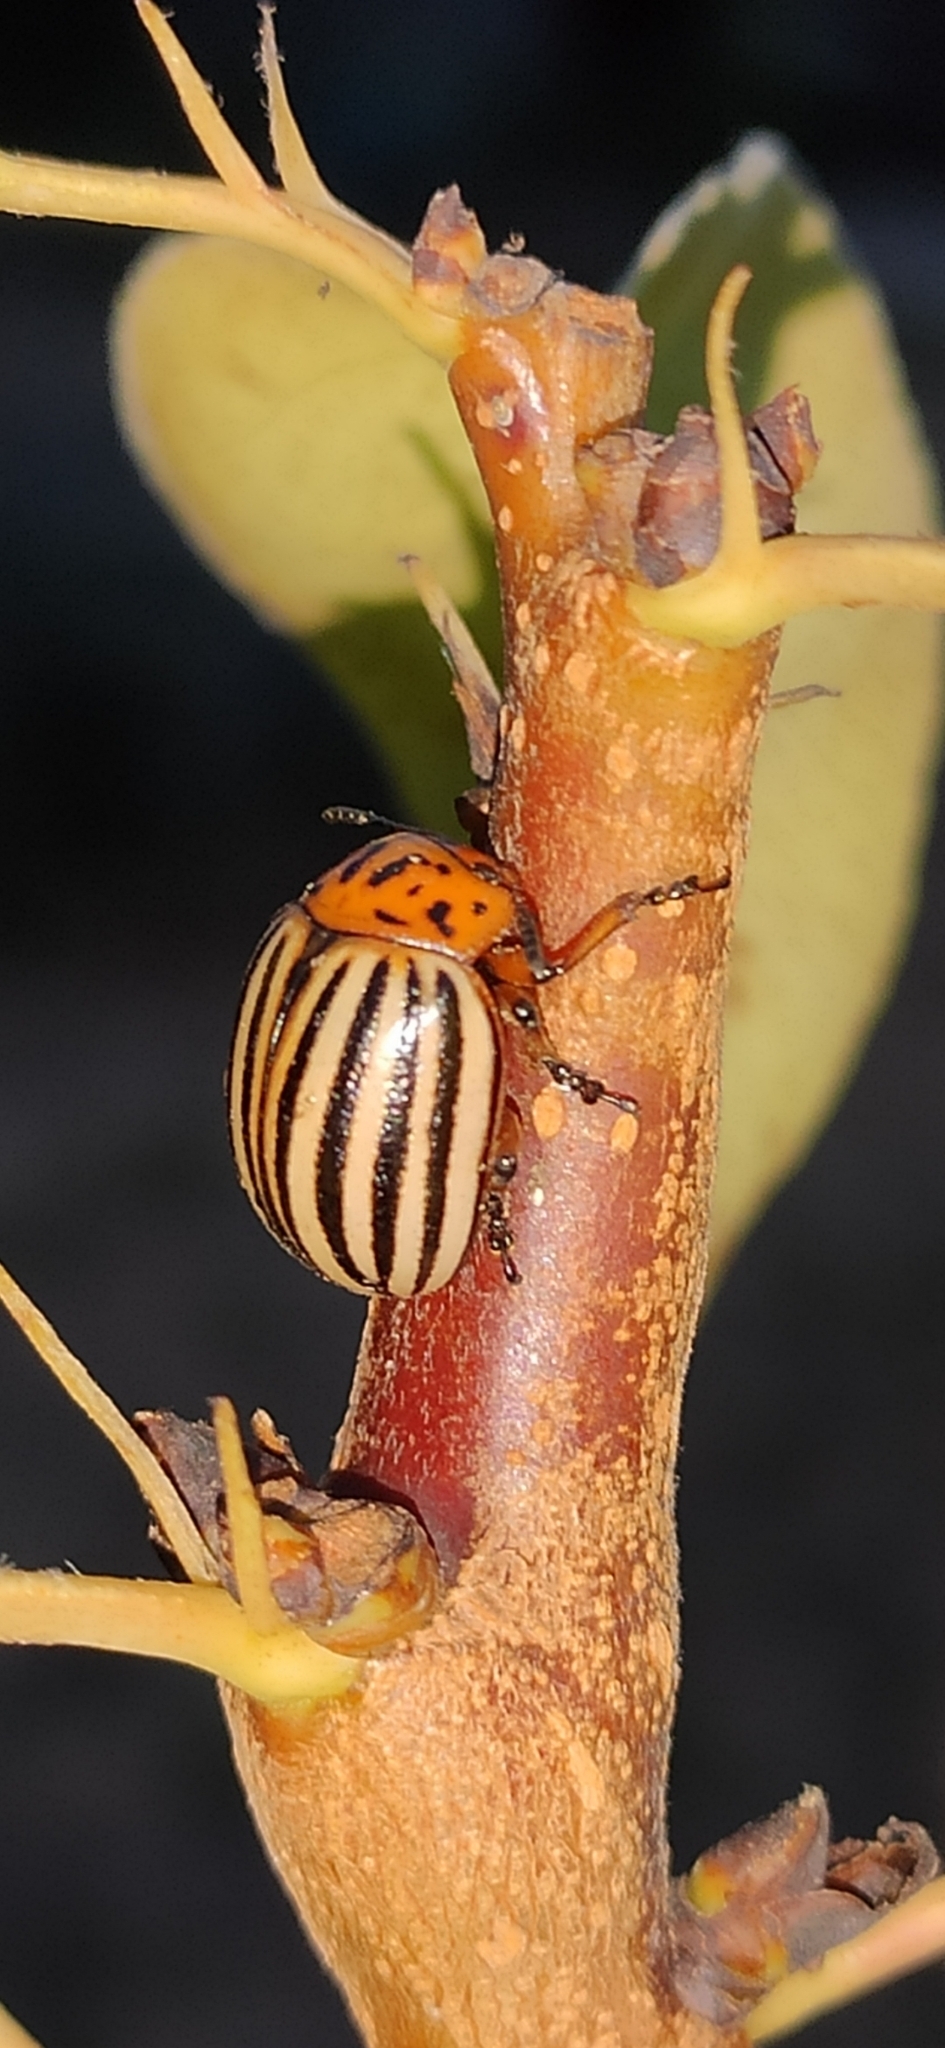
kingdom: Animalia
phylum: Arthropoda
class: Insecta
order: Coleoptera
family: Chrysomelidae
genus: Leptinotarsa
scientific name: Leptinotarsa decemlineata
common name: Colorado potato beetle
